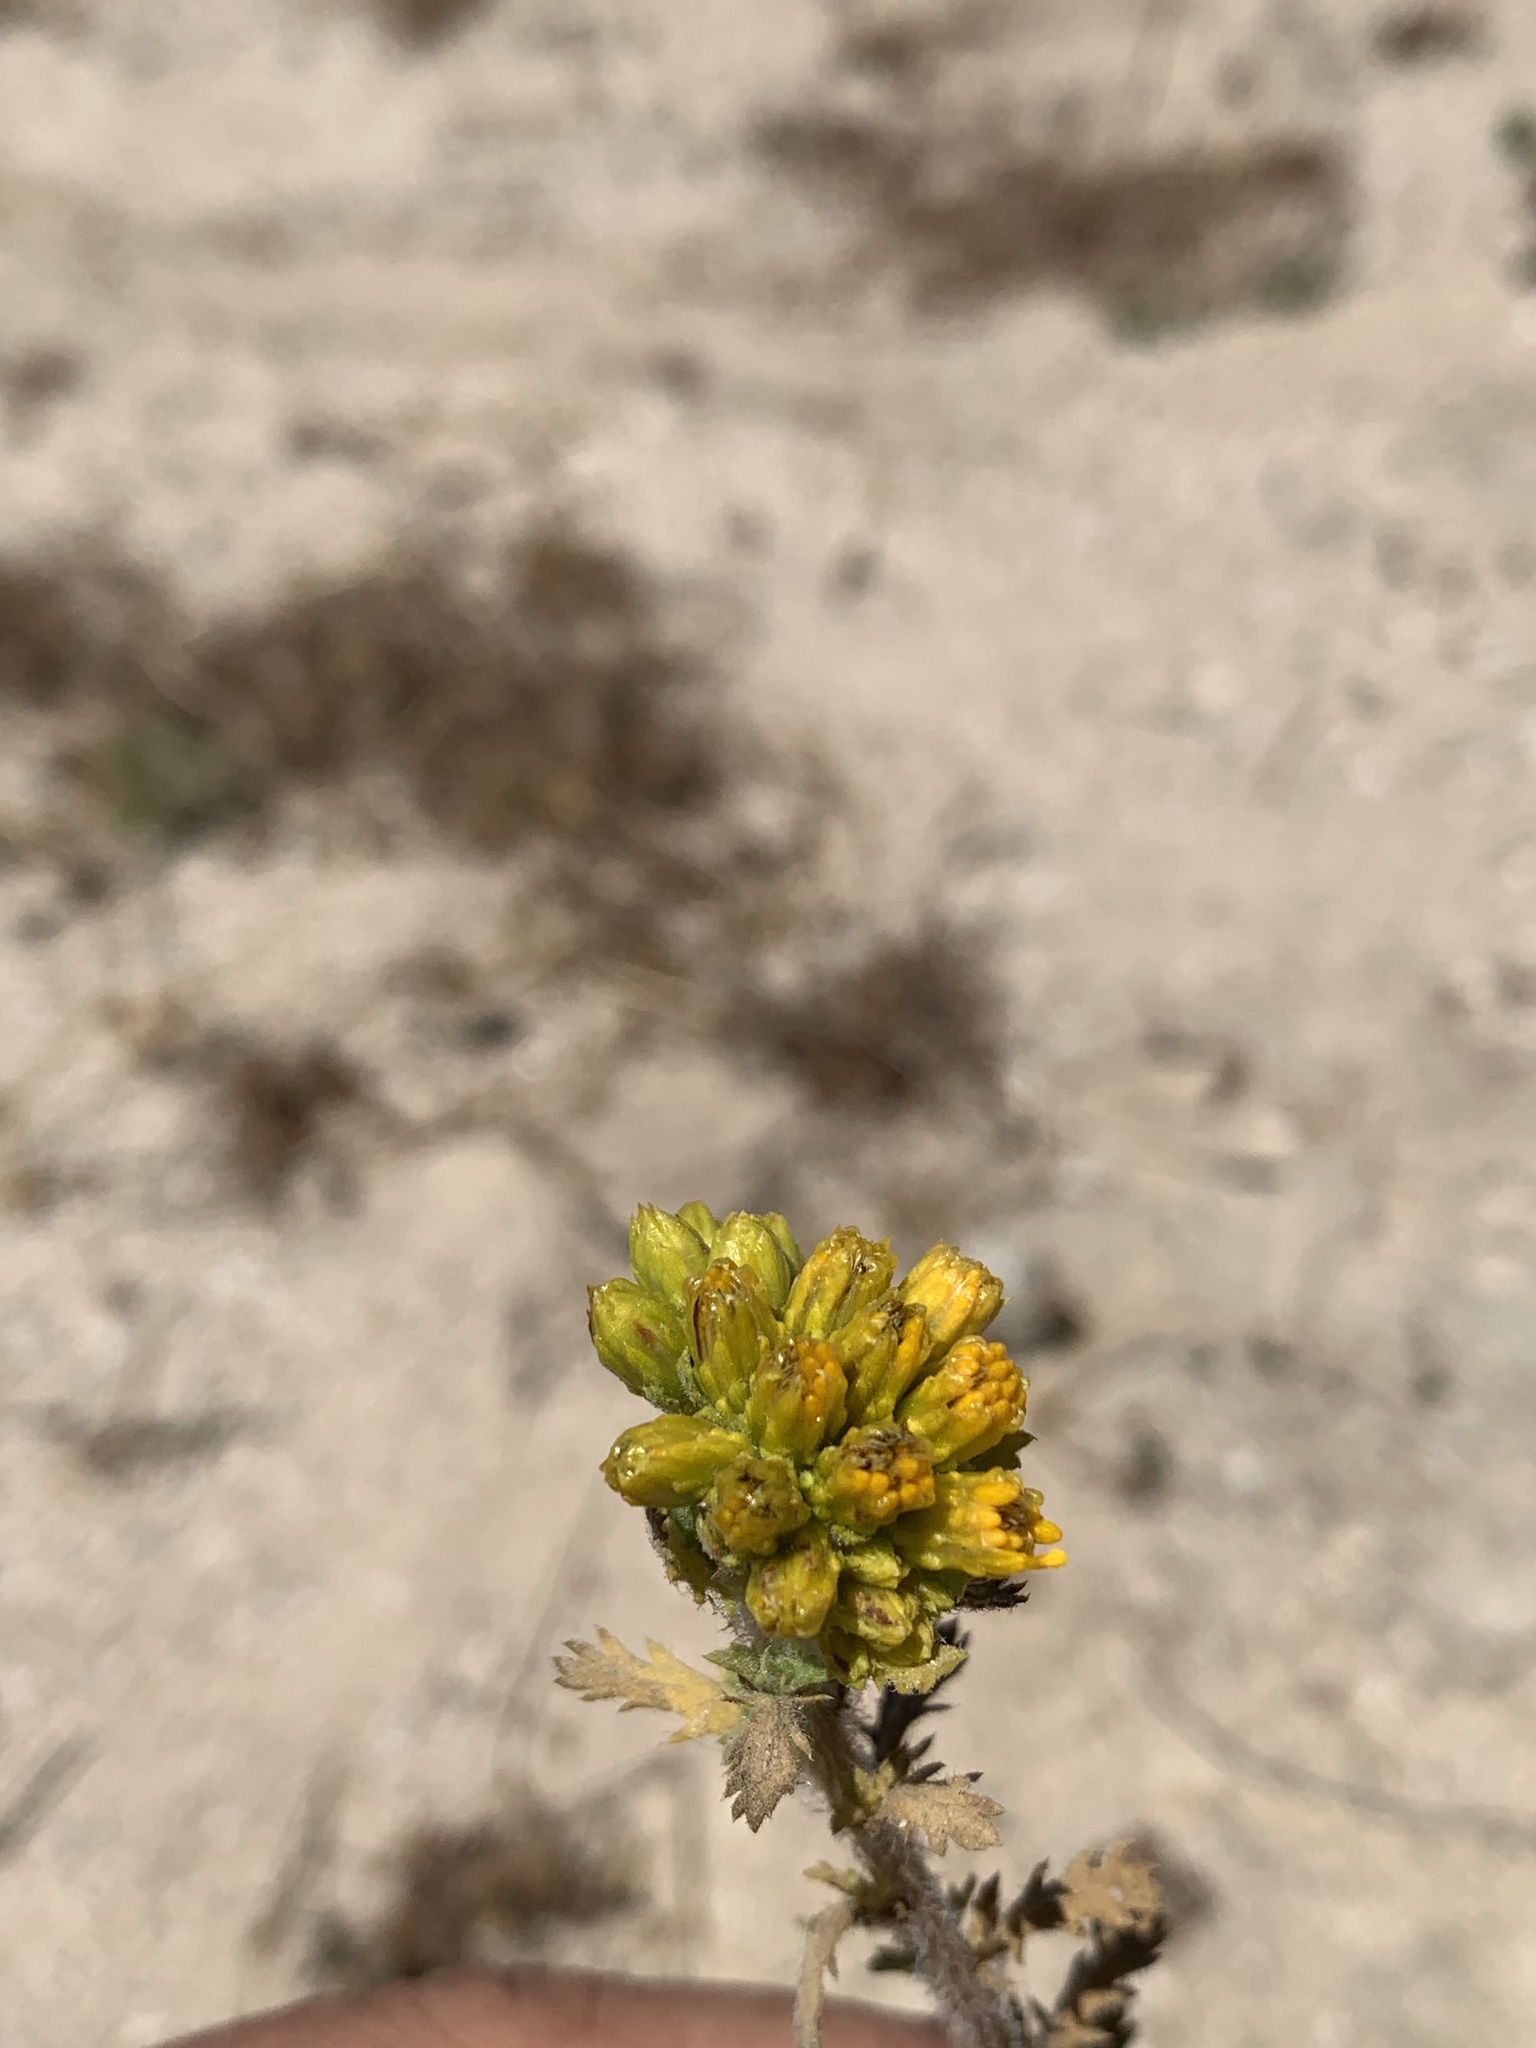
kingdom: Plantae
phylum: Tracheophyta
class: Magnoliopsida
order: Asterales
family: Asteraceae
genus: Isocoma
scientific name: Isocoma menziesii
